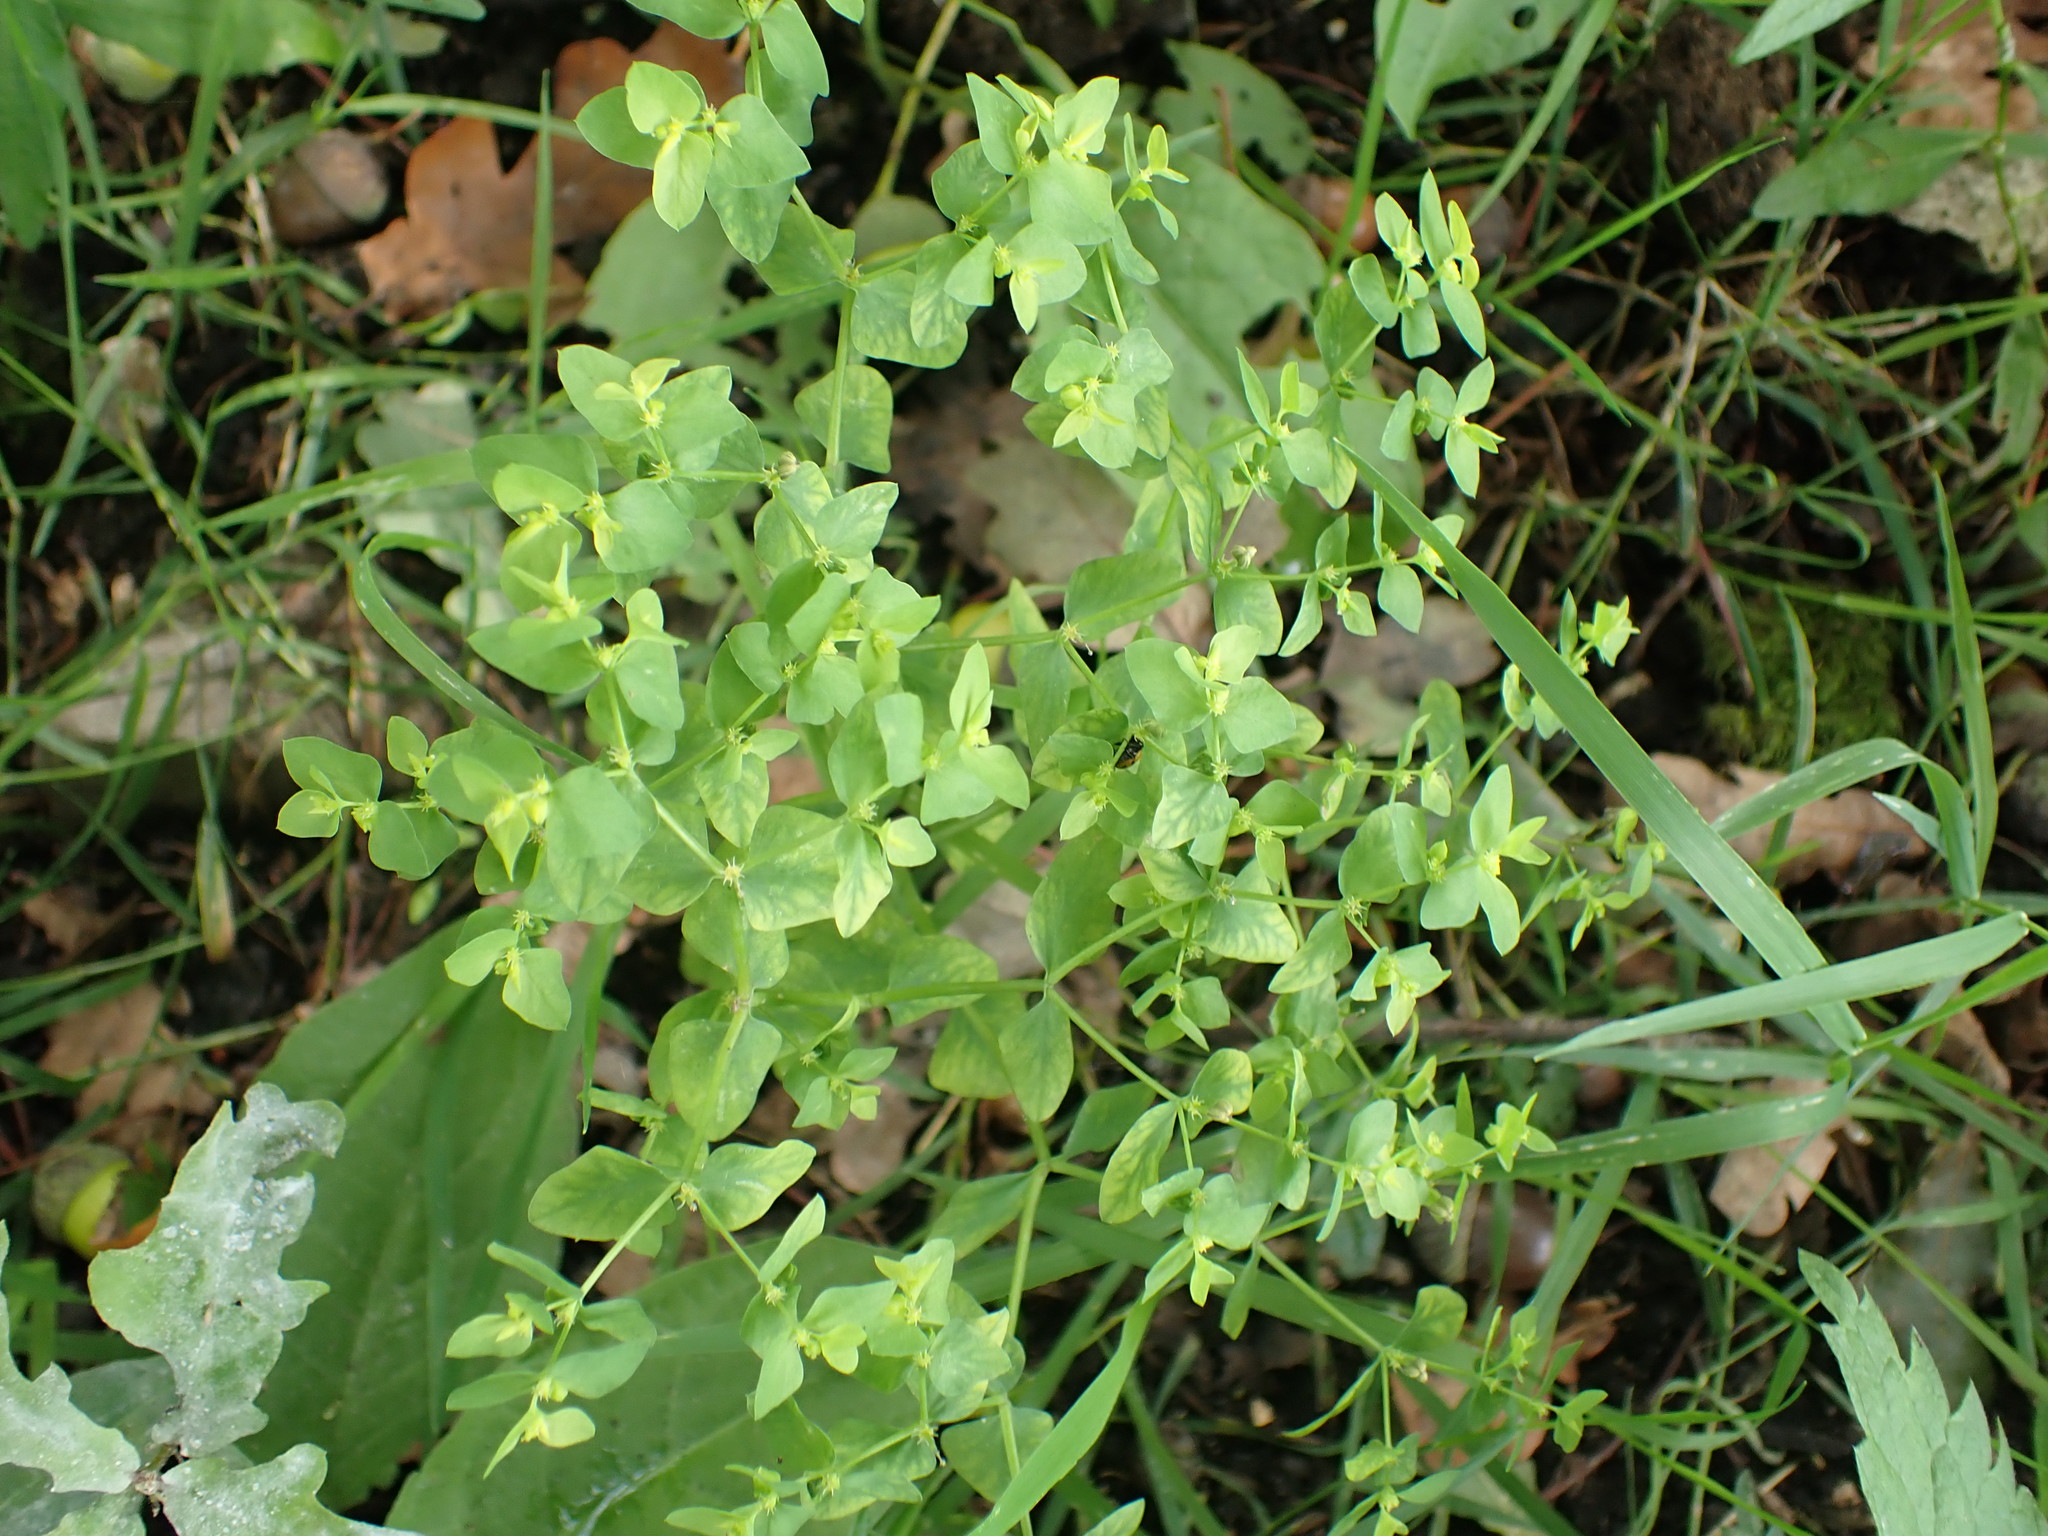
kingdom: Plantae
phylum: Tracheophyta
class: Magnoliopsida
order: Malpighiales
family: Euphorbiaceae
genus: Euphorbia
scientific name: Euphorbia peplus
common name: Petty spurge
